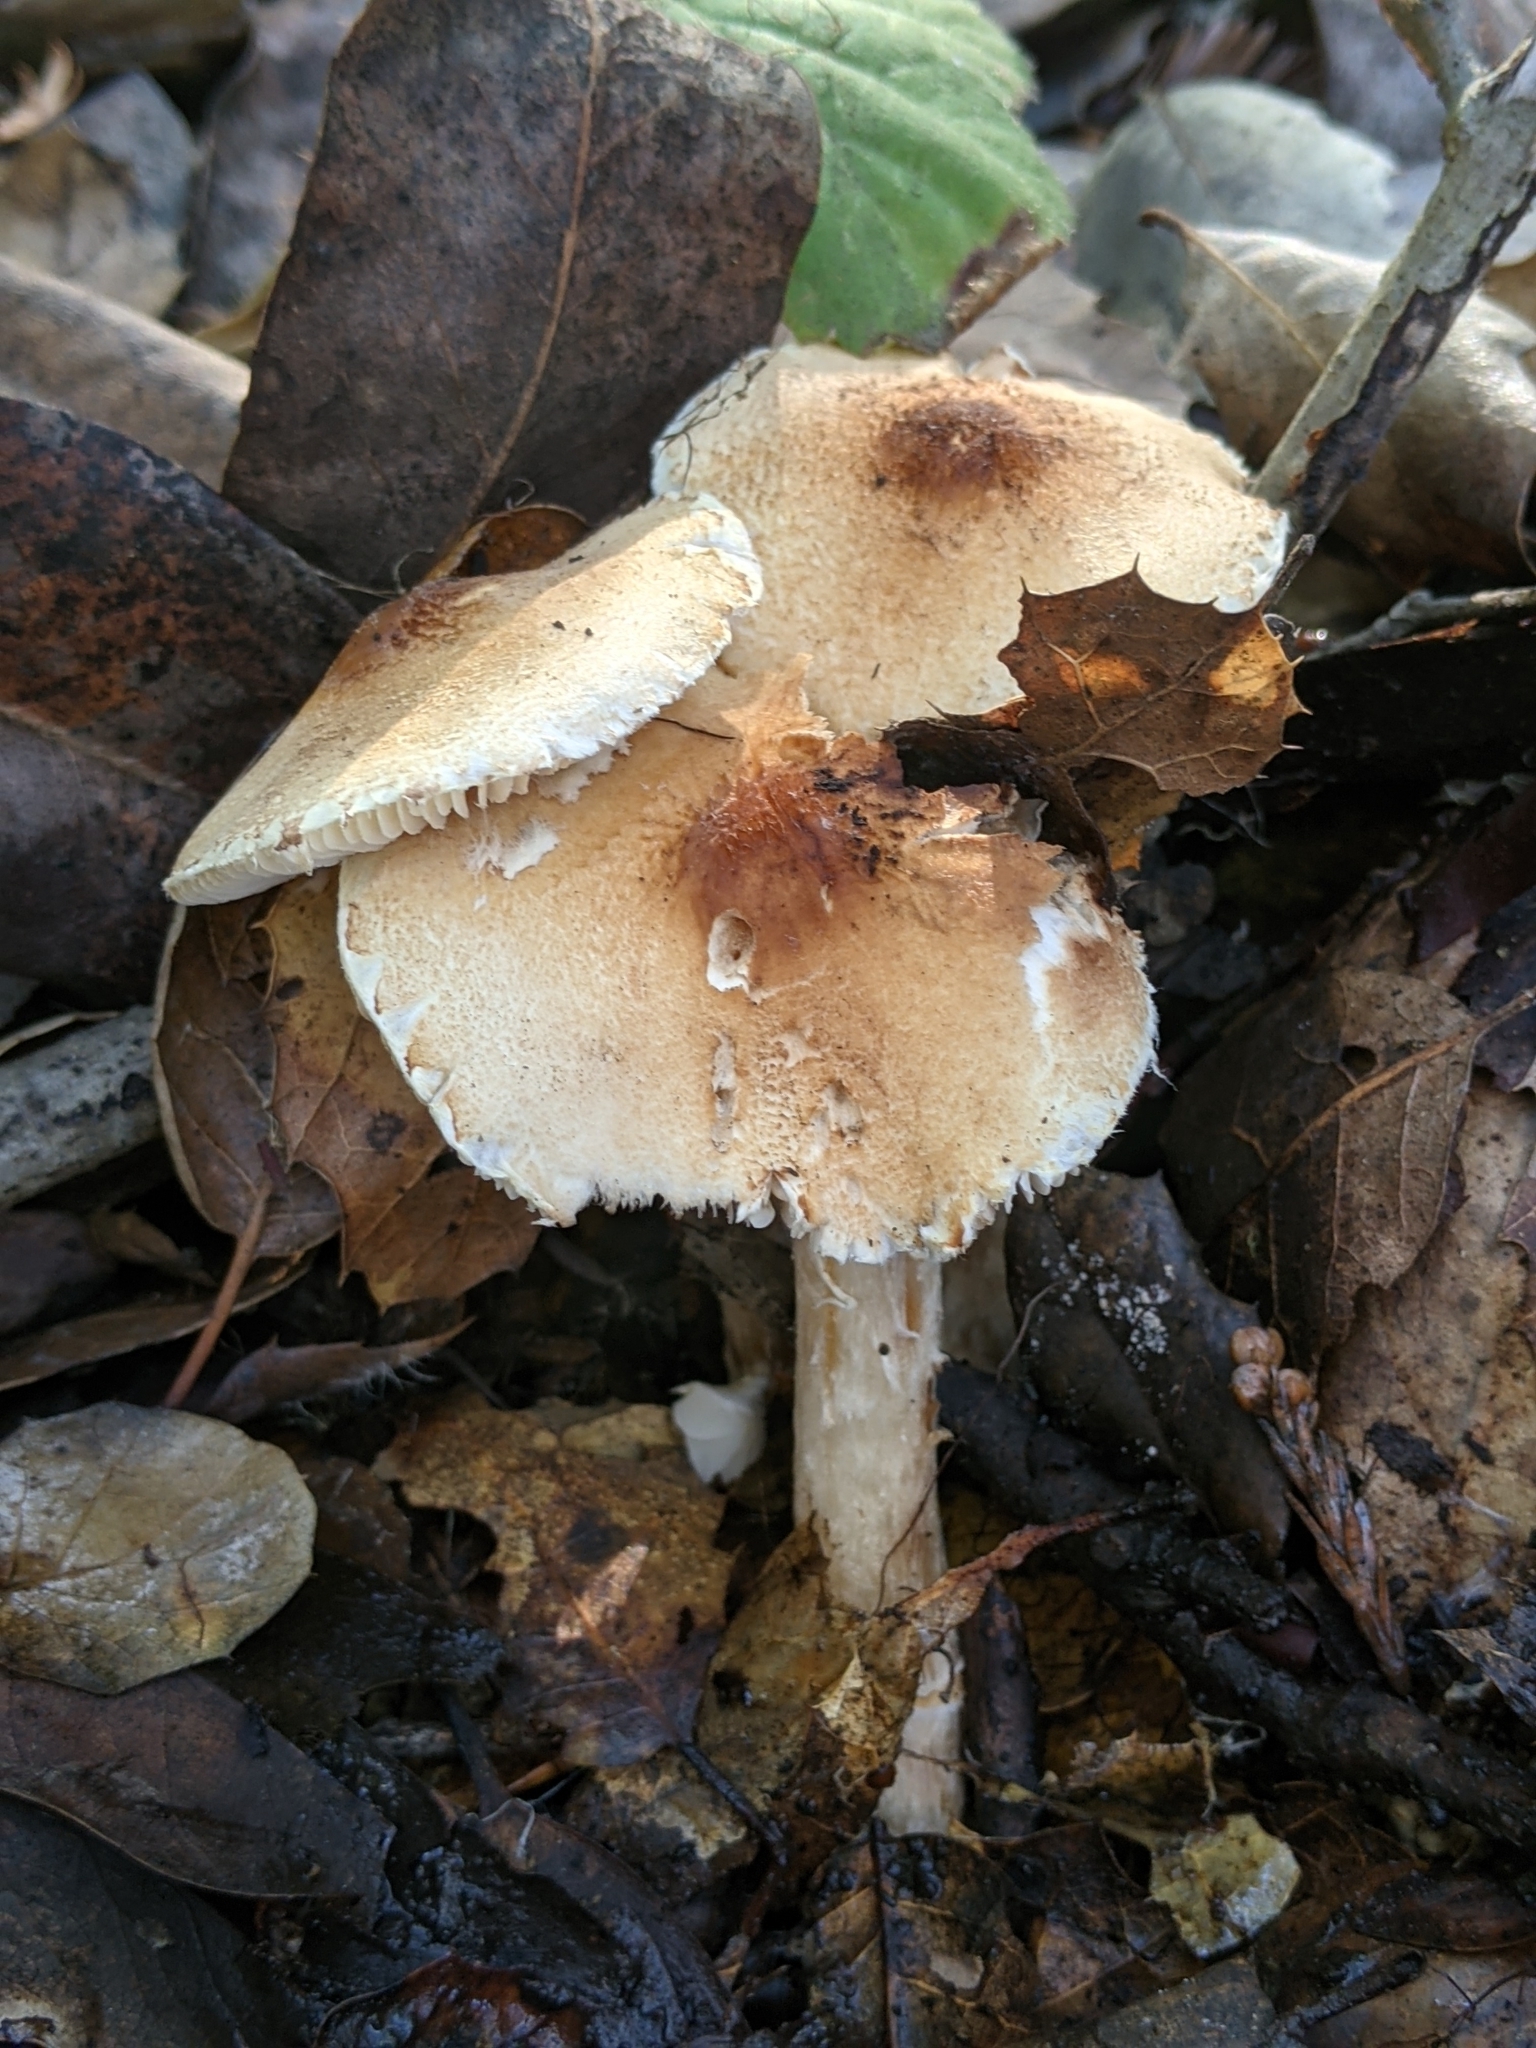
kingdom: Fungi
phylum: Basidiomycota
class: Agaricomycetes
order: Agaricales
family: Agaricaceae
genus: Lepiota
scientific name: Lepiota spheniscispora
